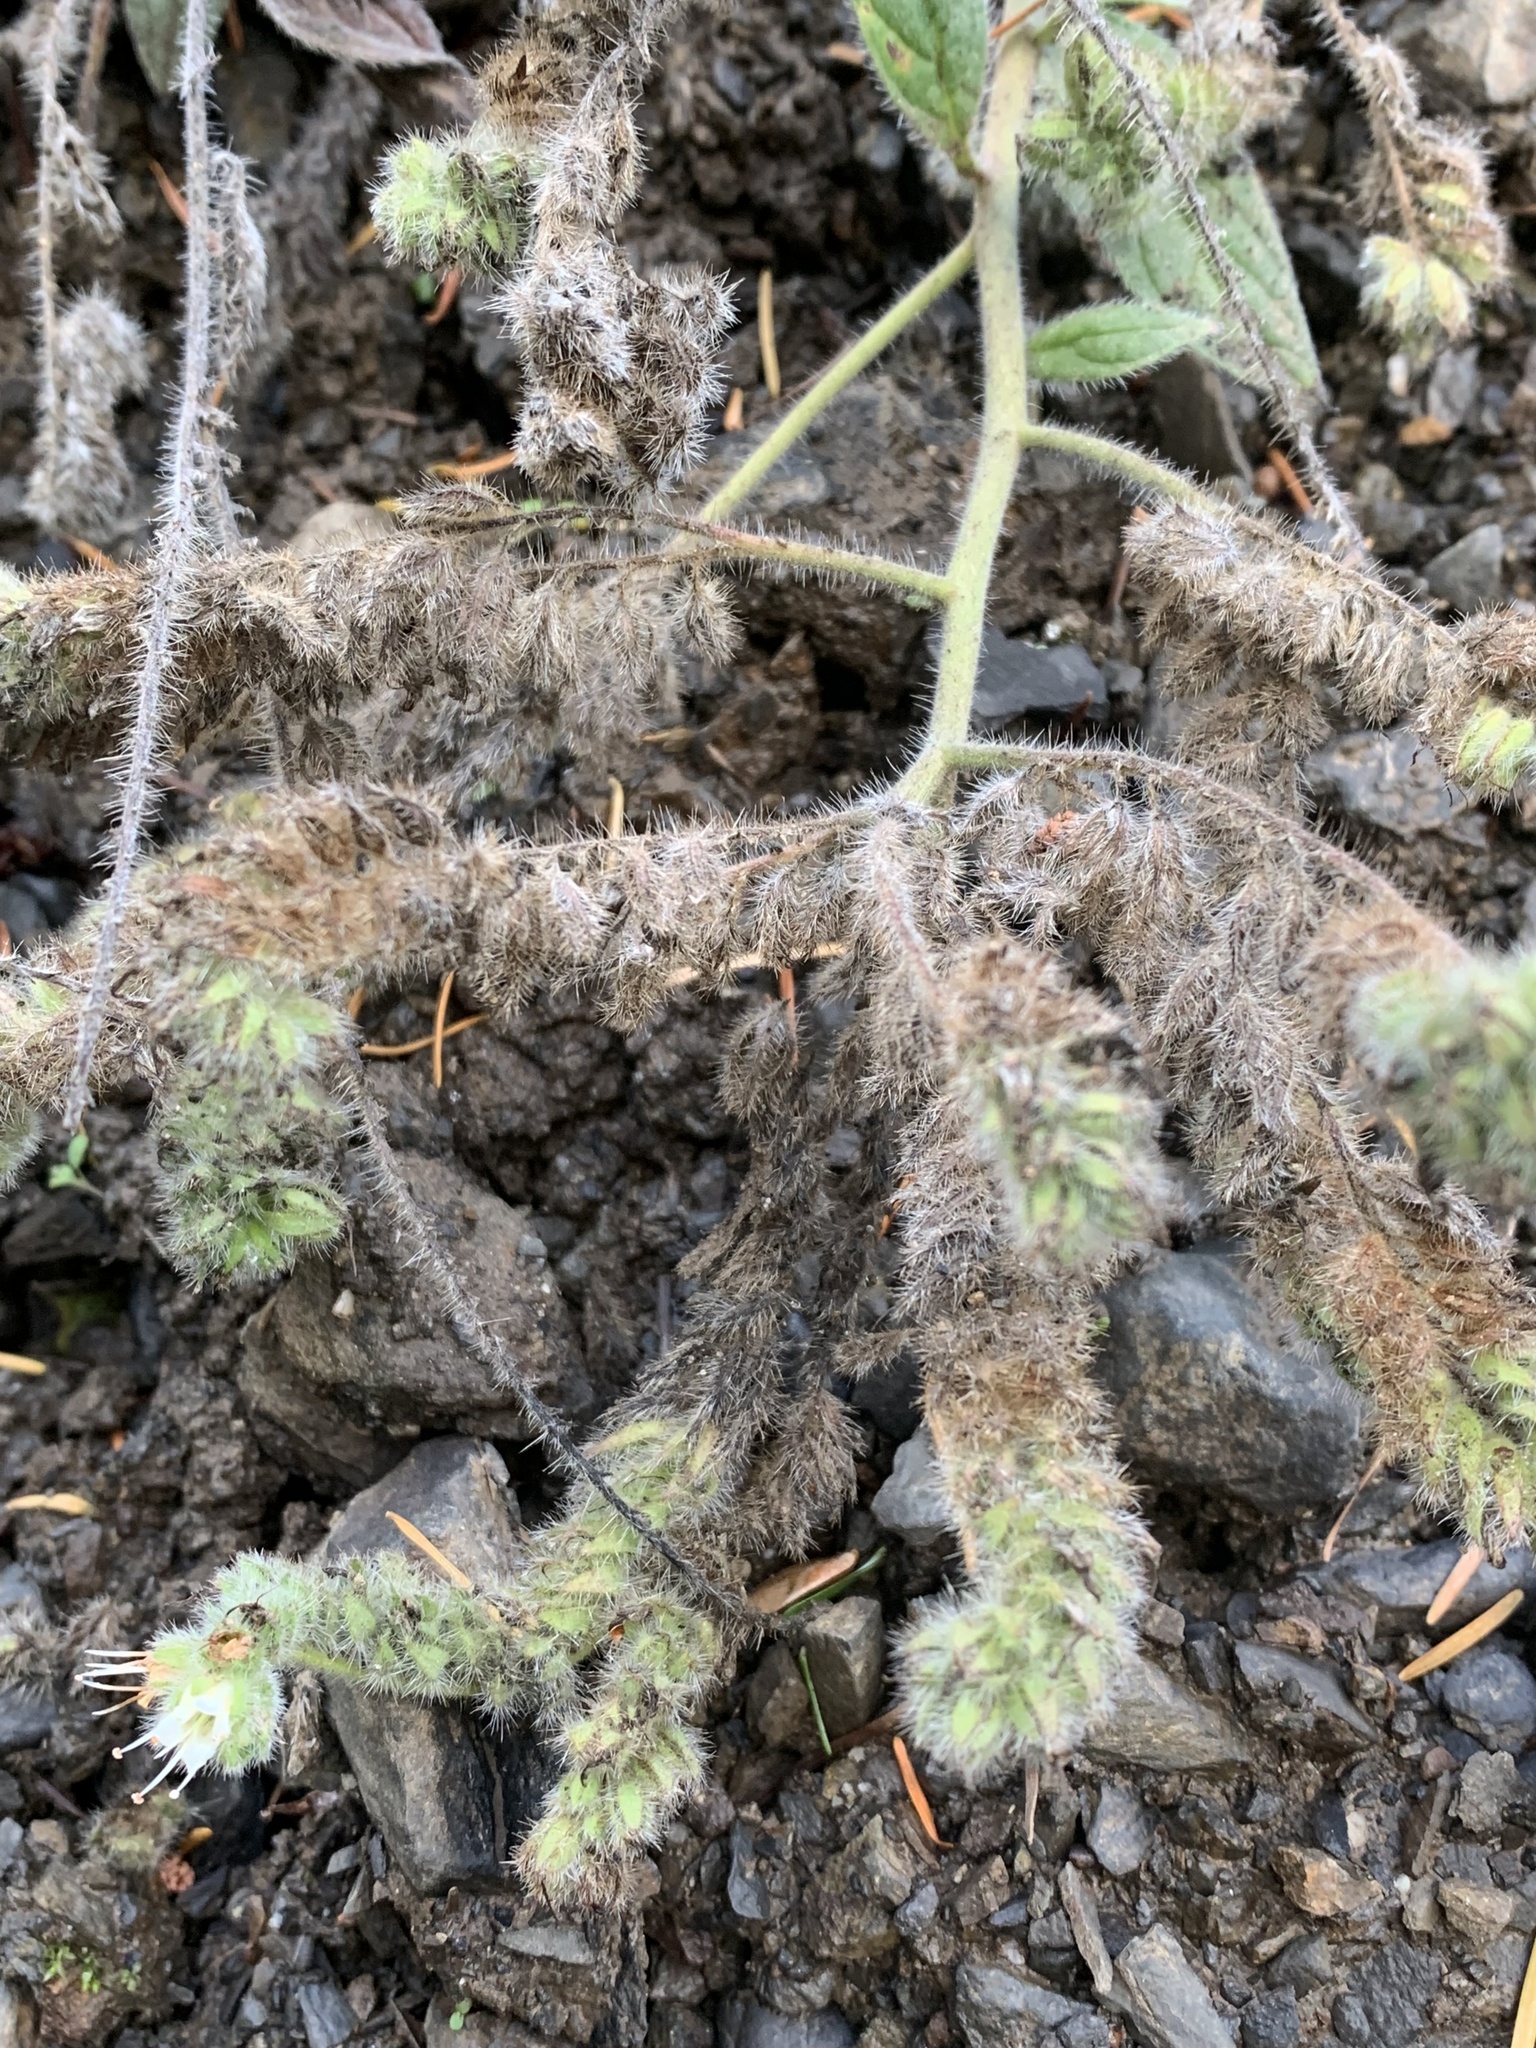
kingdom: Plantae
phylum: Tracheophyta
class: Magnoliopsida
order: Boraginales
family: Hydrophyllaceae
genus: Phacelia
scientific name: Phacelia hastata
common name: Silver-leaved phacelia
